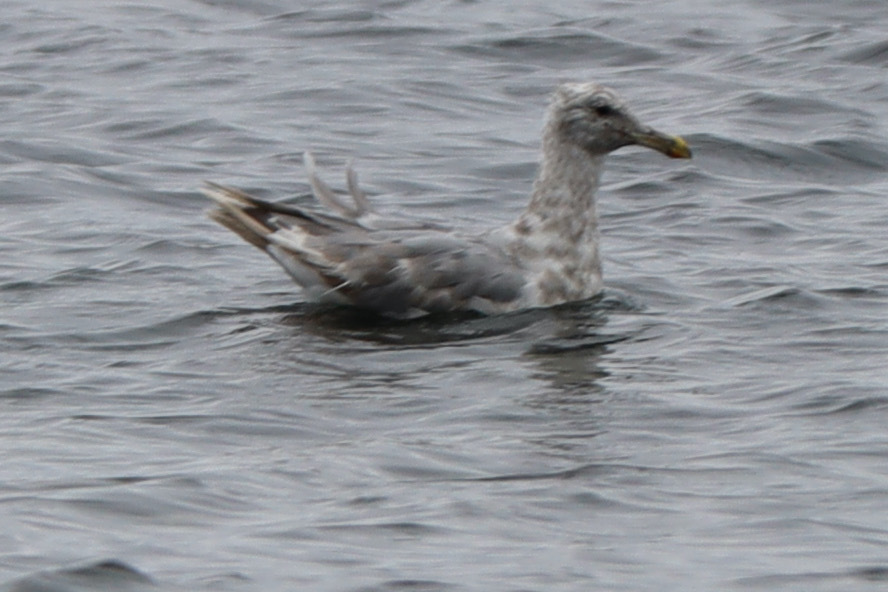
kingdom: Animalia
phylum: Chordata
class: Aves
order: Charadriiformes
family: Laridae
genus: Larus
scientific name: Larus glaucescens
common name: Glaucous-winged gull
